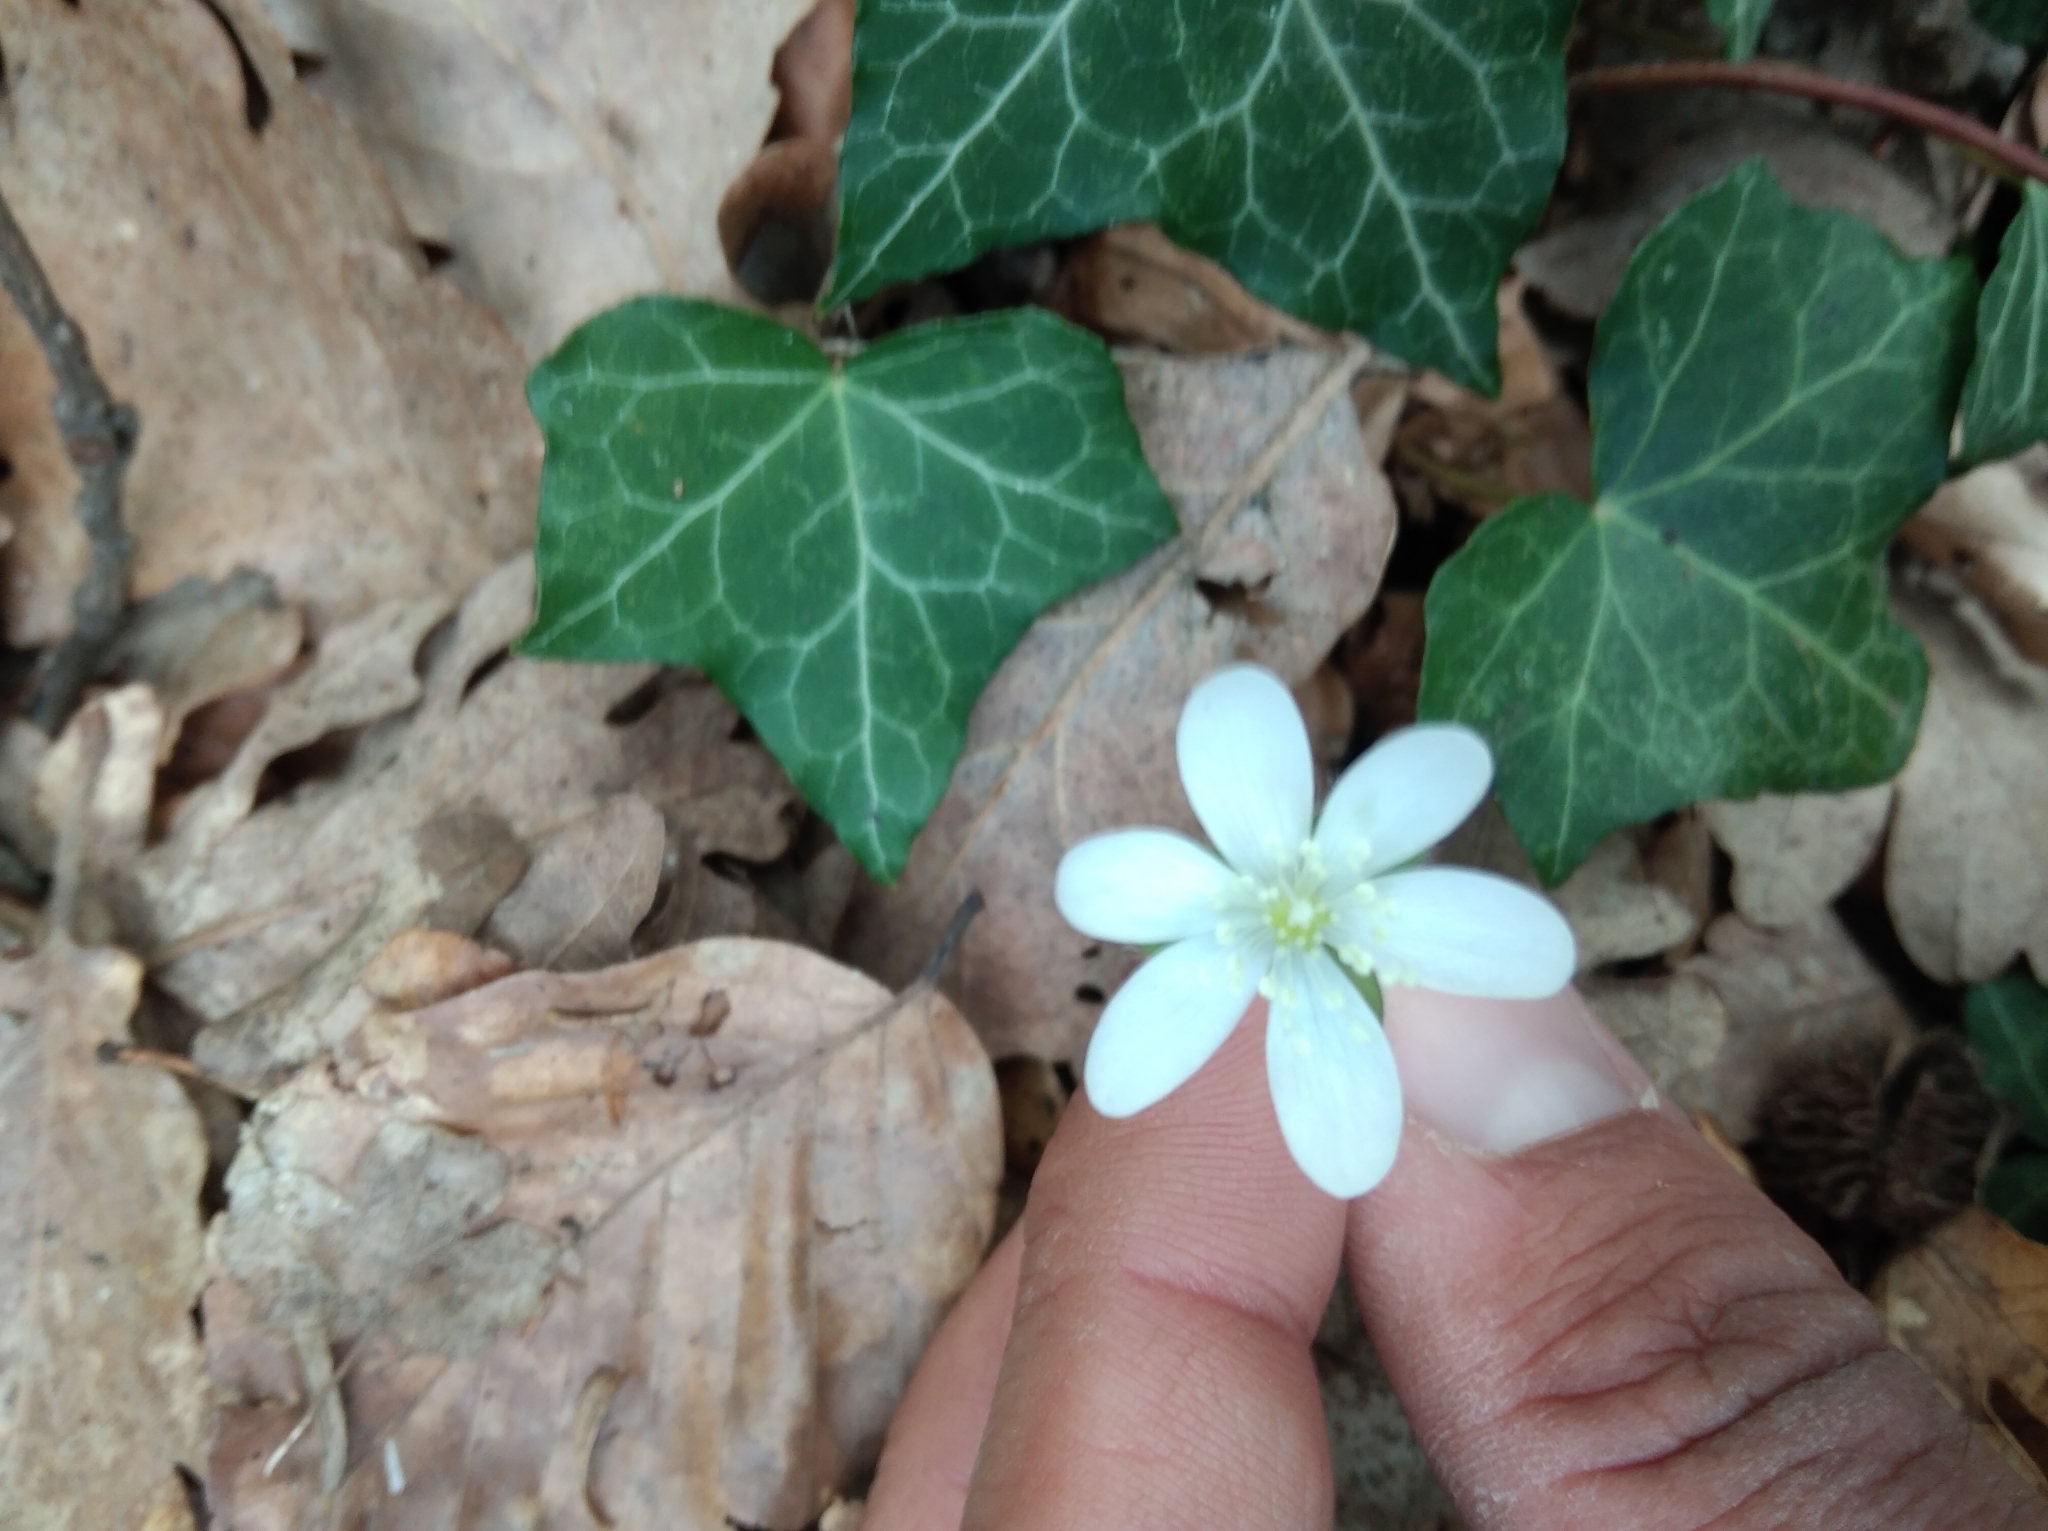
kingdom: Plantae
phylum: Tracheophyta
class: Magnoliopsida
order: Ranunculales
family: Ranunculaceae
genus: Hepatica
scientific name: Hepatica nobilis
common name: Liverleaf
